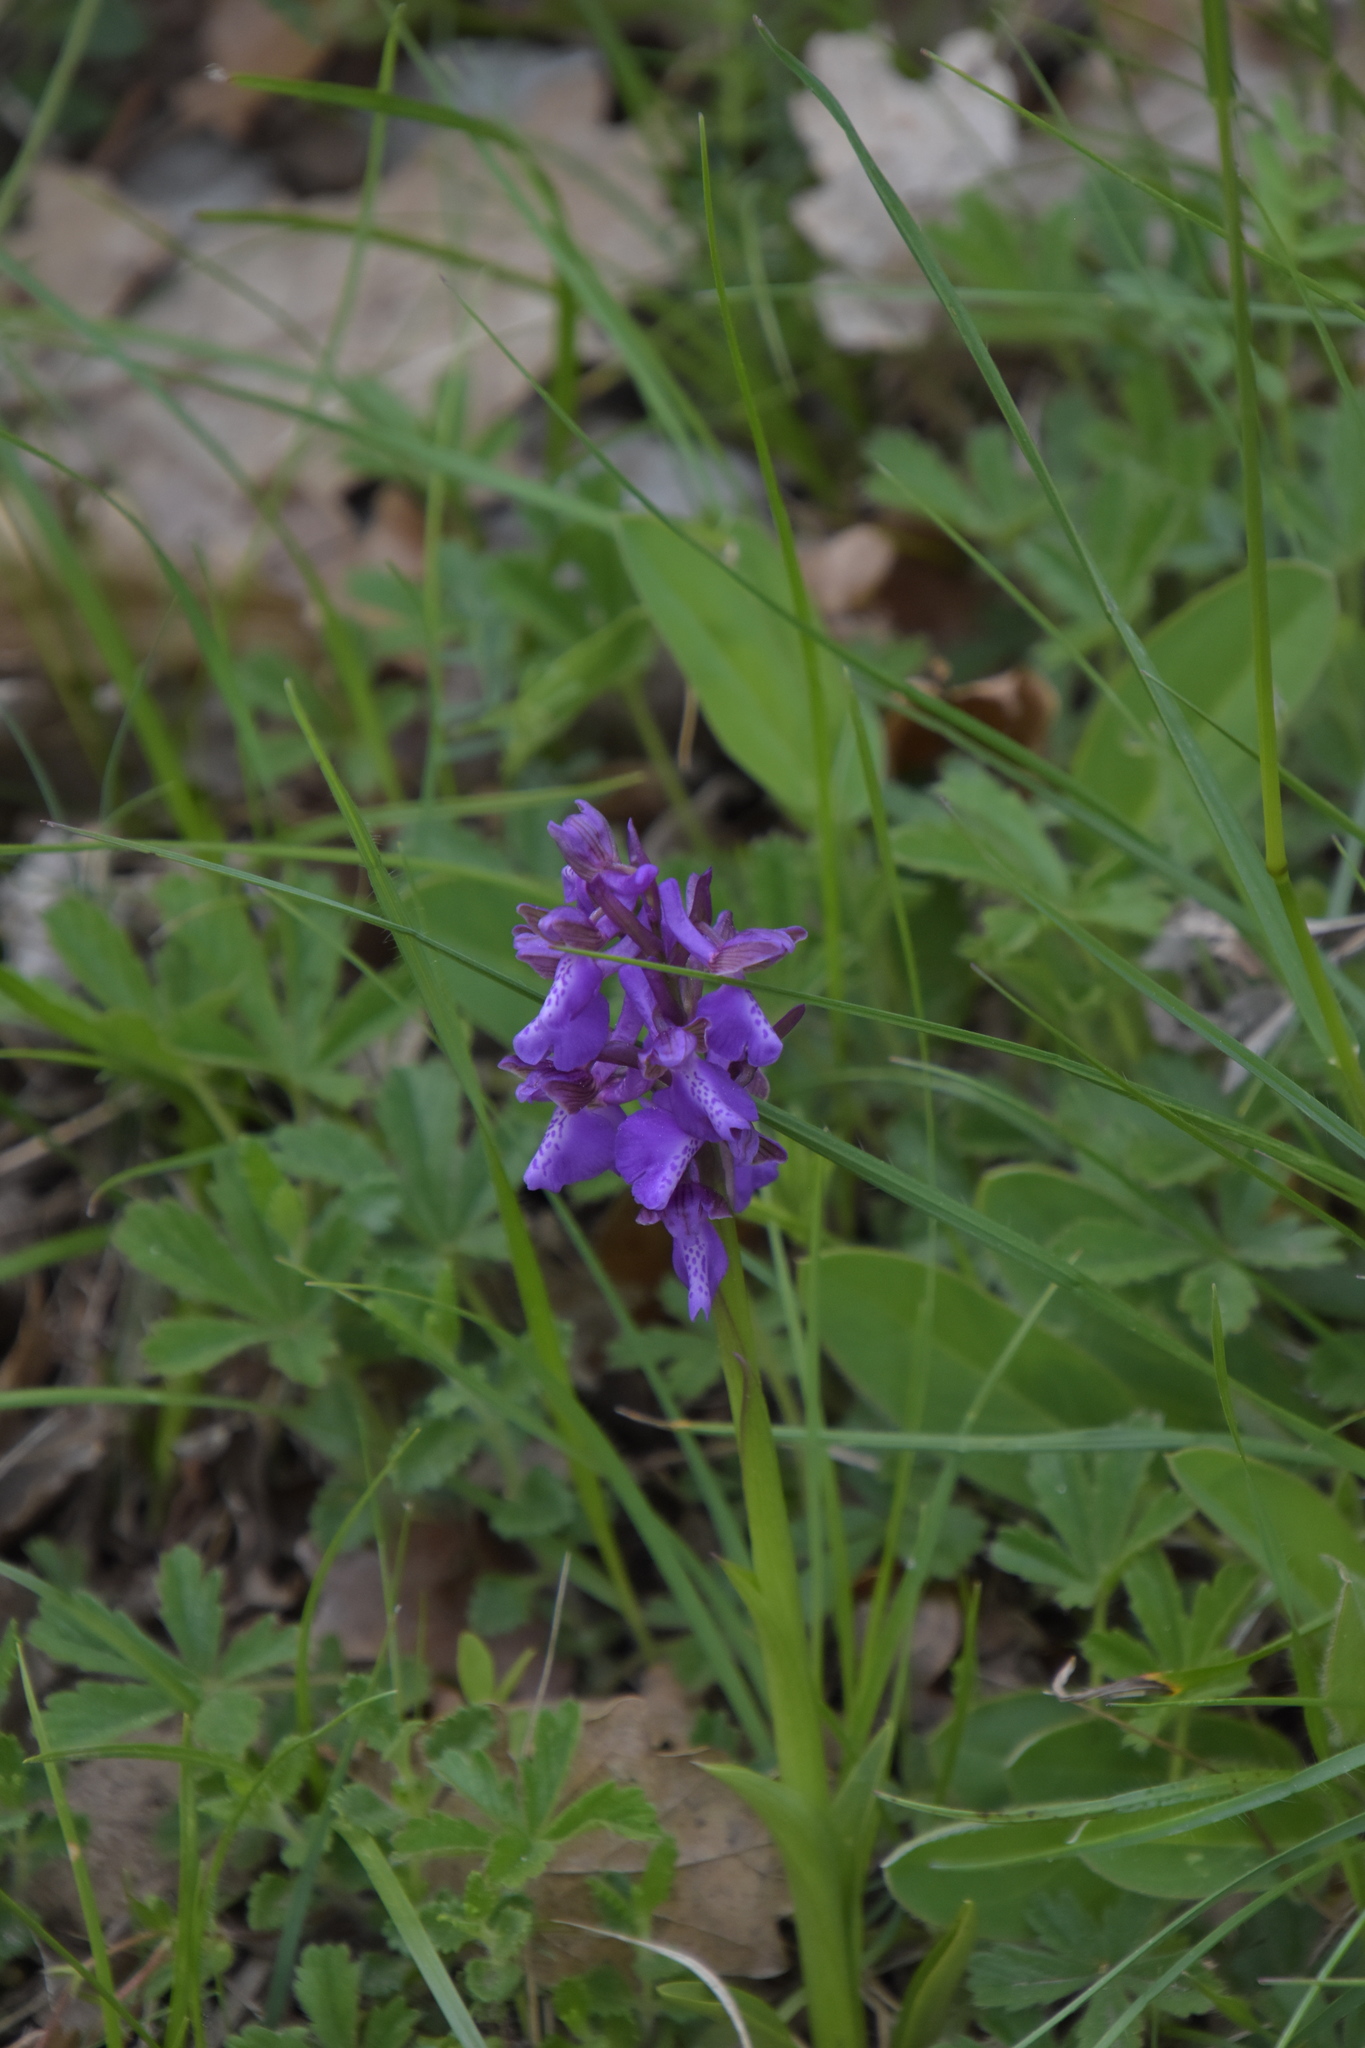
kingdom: Plantae
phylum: Tracheophyta
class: Liliopsida
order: Asparagales
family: Orchidaceae
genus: Anacamptis
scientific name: Anacamptis morio
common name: Green-winged orchid
